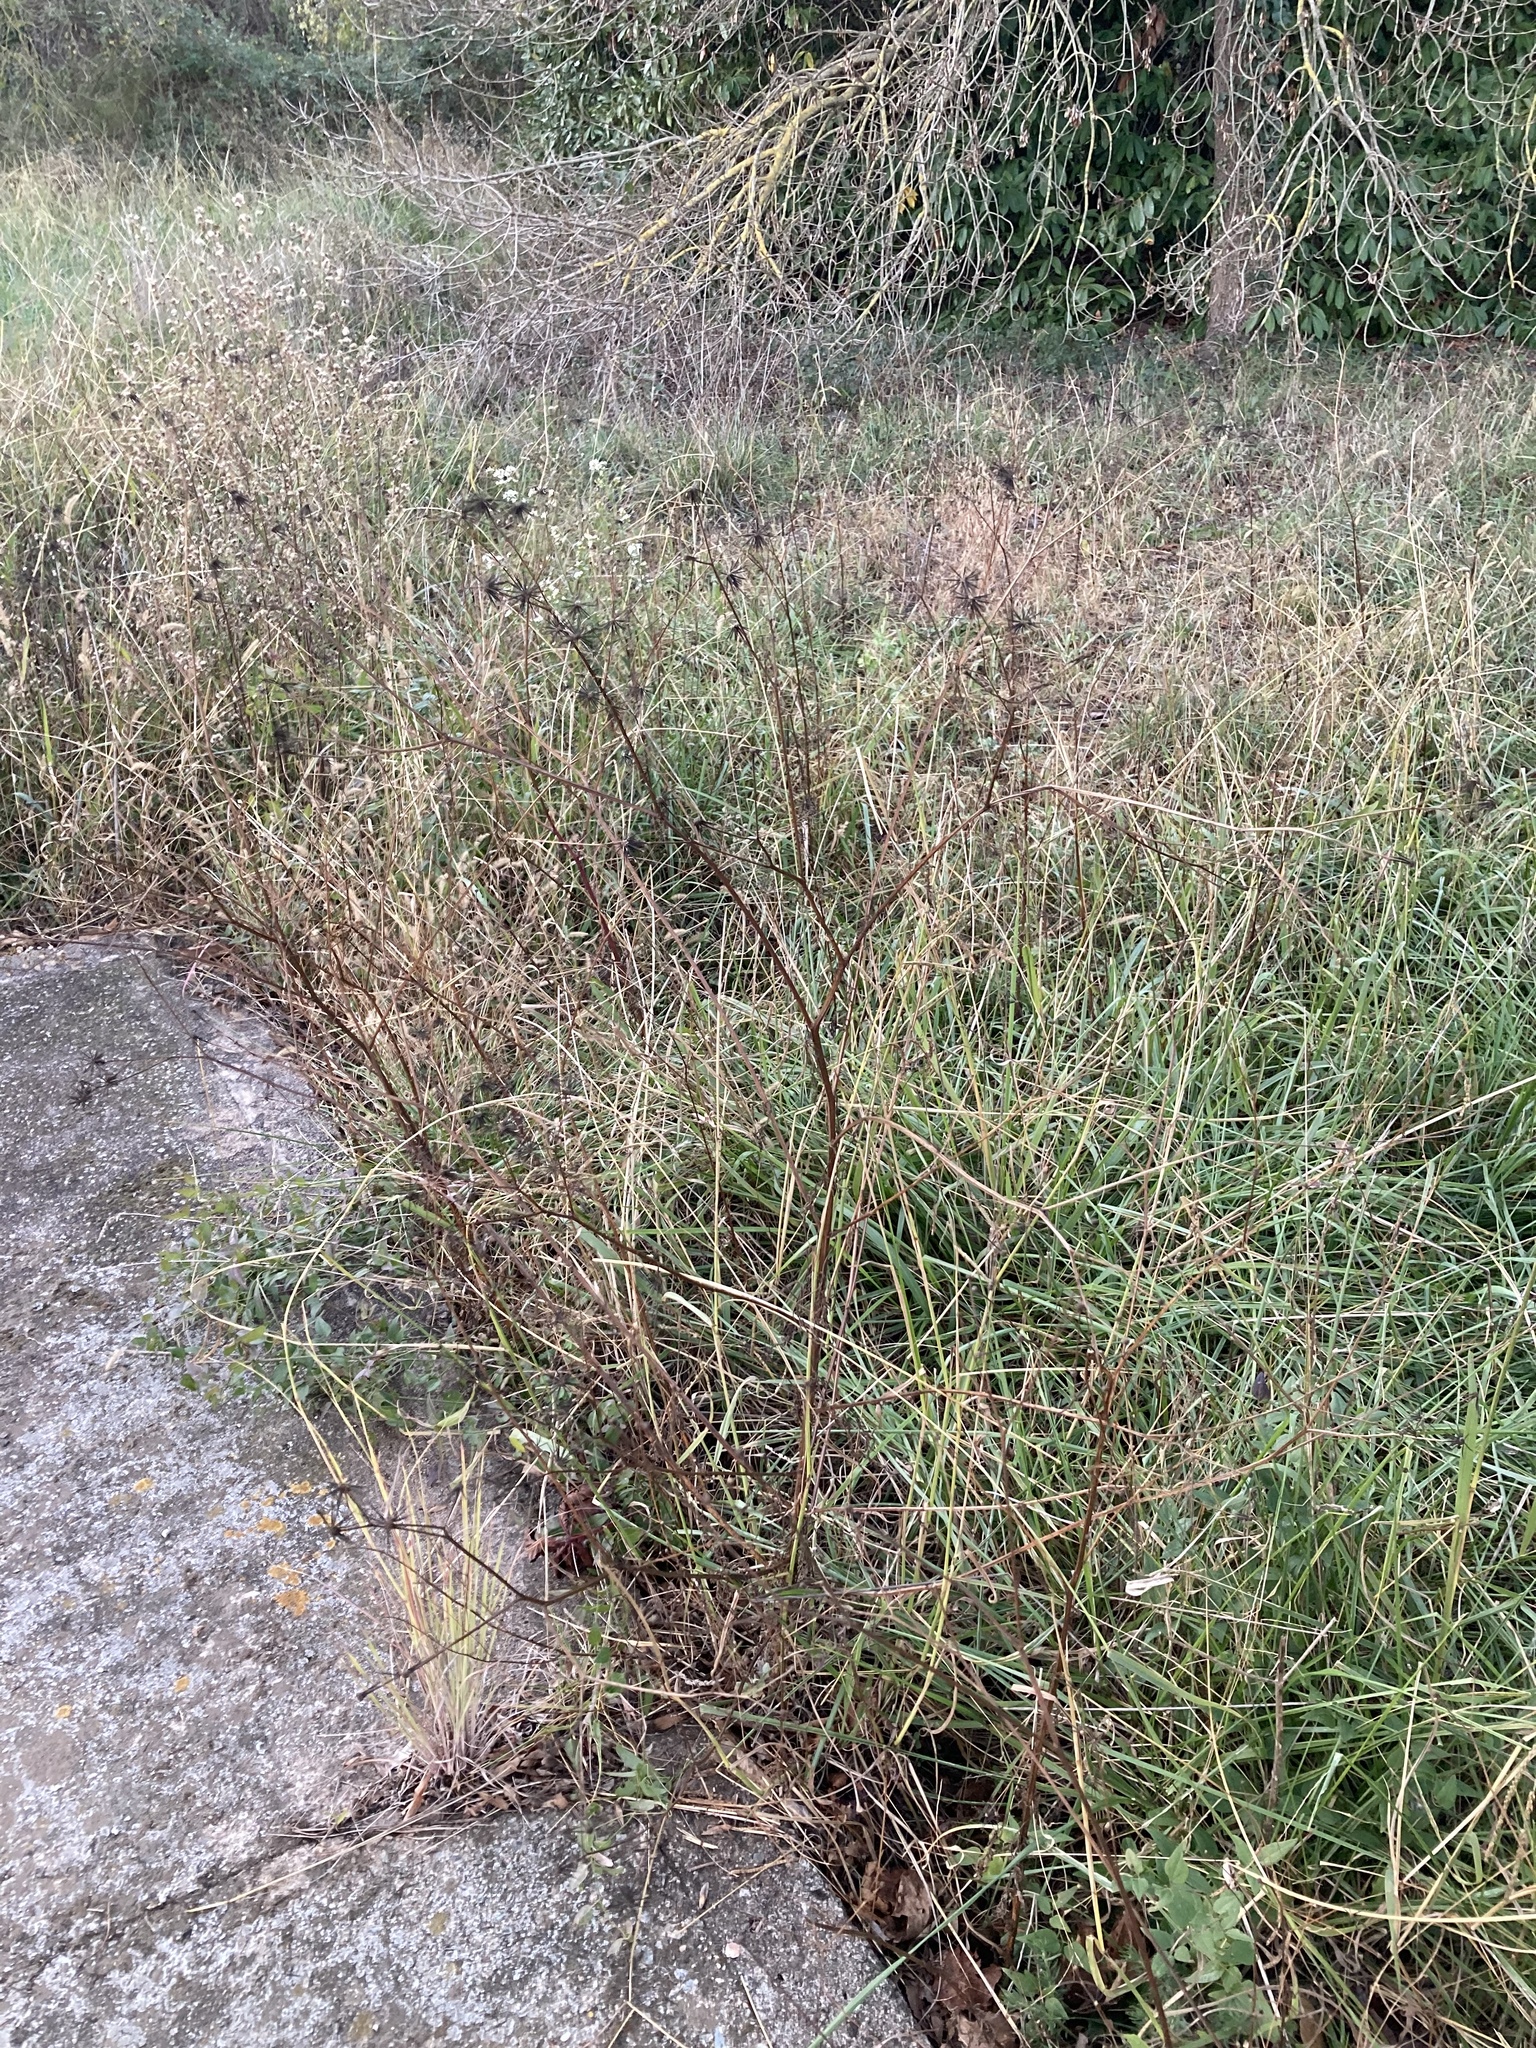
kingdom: Plantae
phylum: Tracheophyta
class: Magnoliopsida
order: Asterales
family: Asteraceae
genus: Bidens
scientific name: Bidens subalternans
